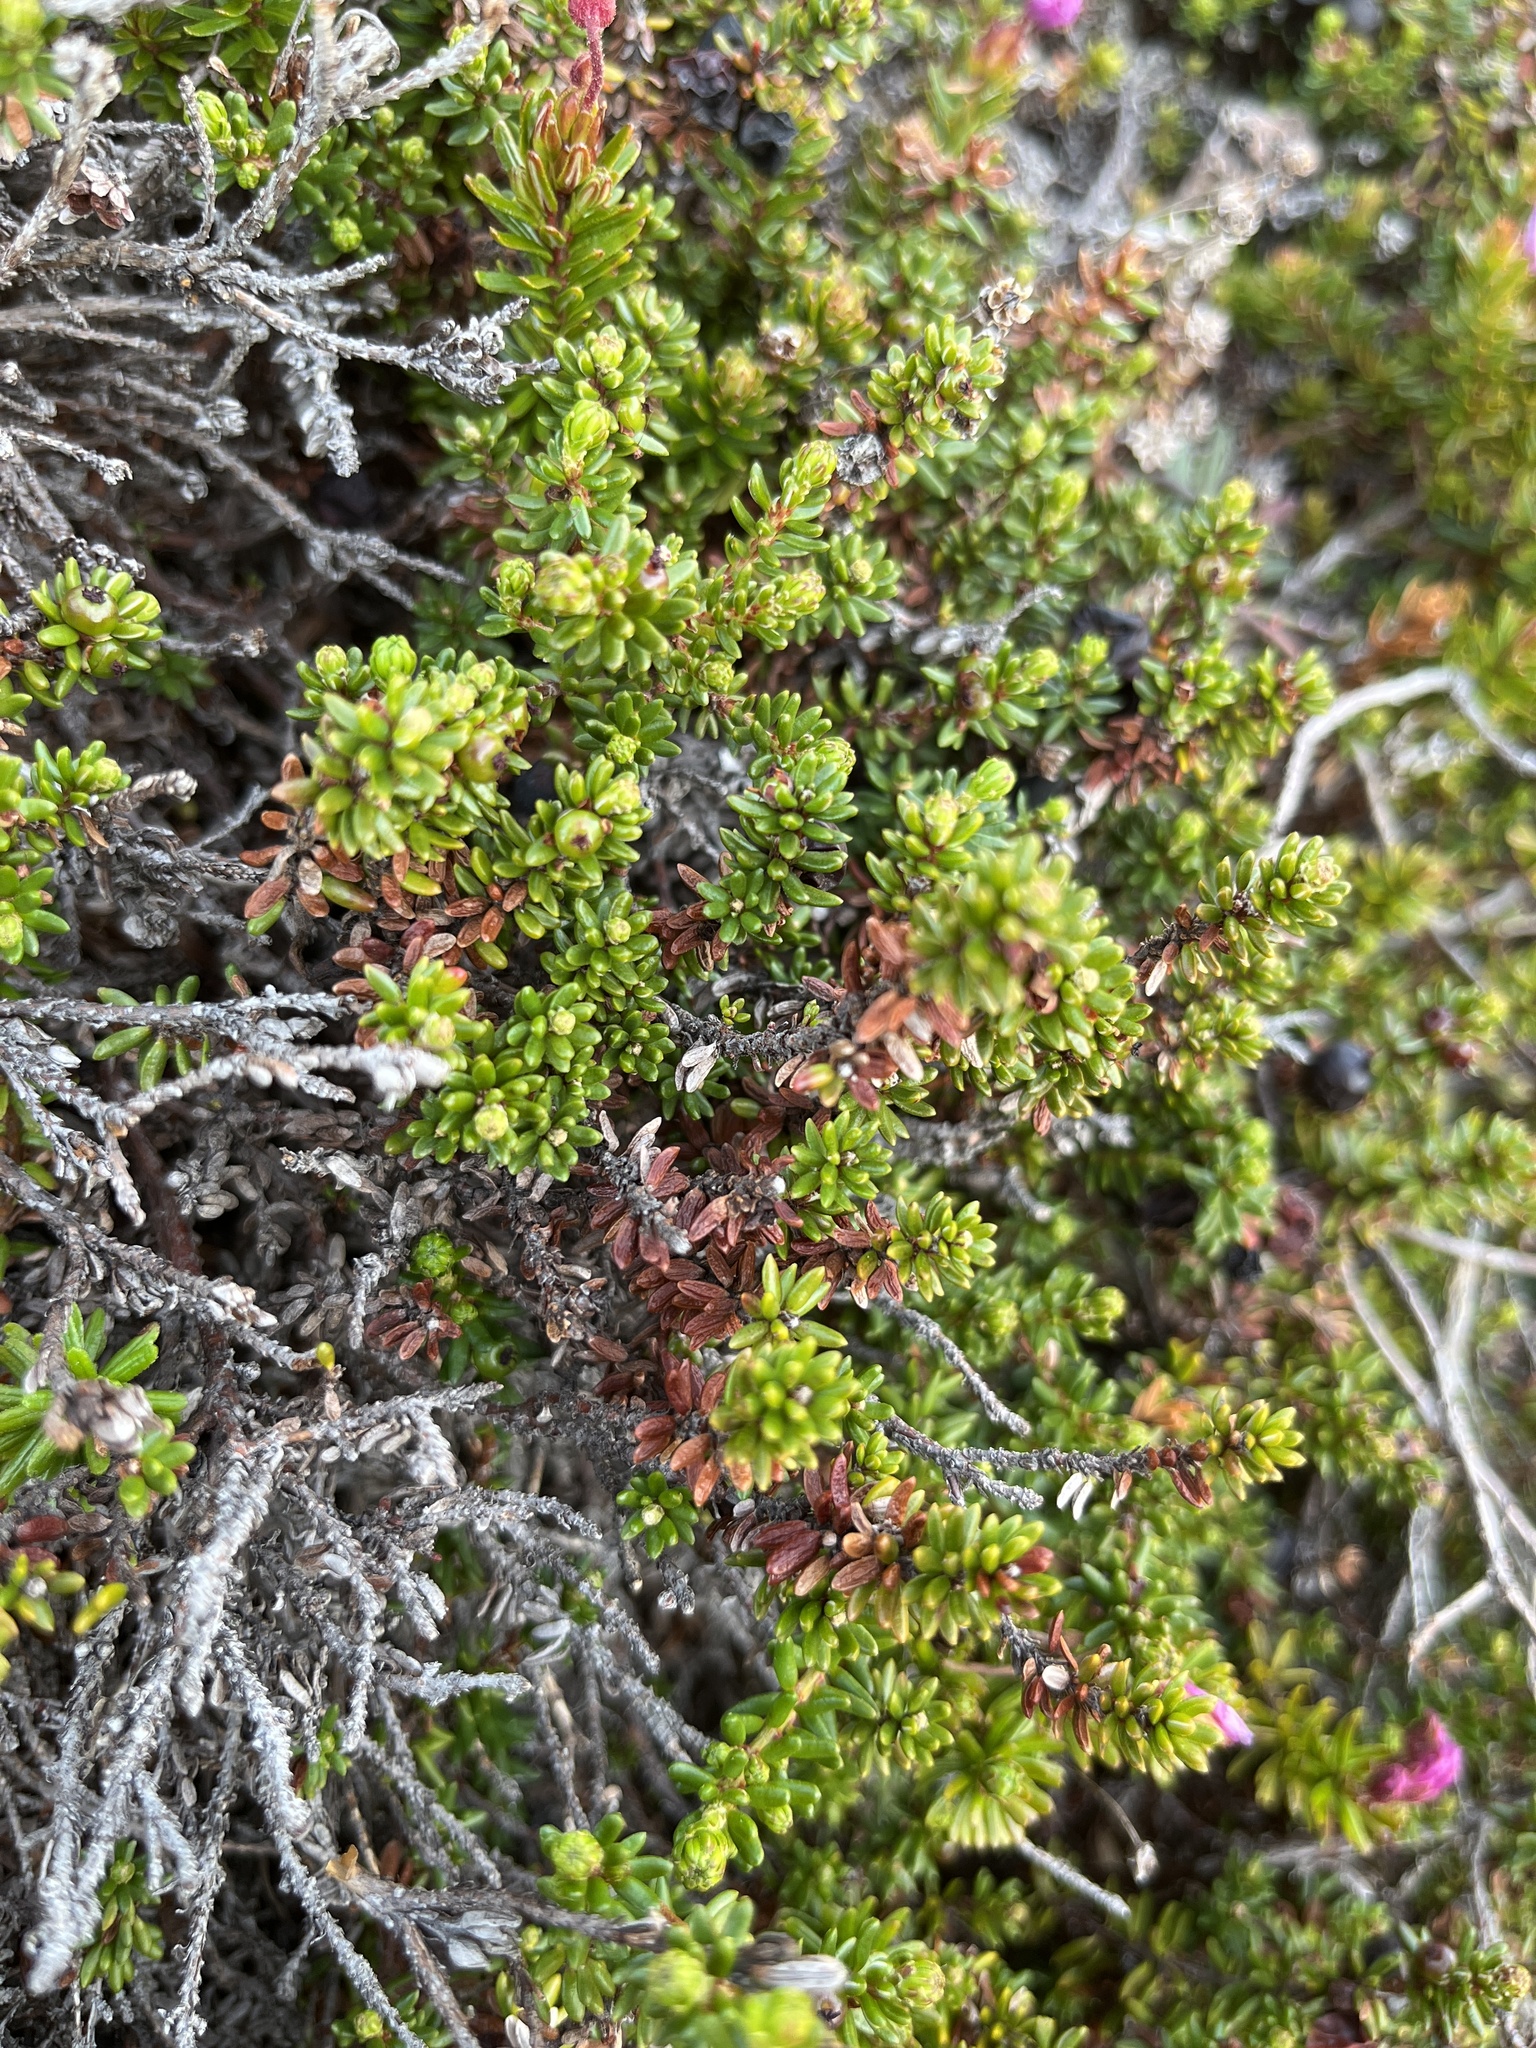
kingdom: Plantae
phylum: Tracheophyta
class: Magnoliopsida
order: Ericales
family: Ericaceae
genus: Empetrum
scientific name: Empetrum hermaphroditum
